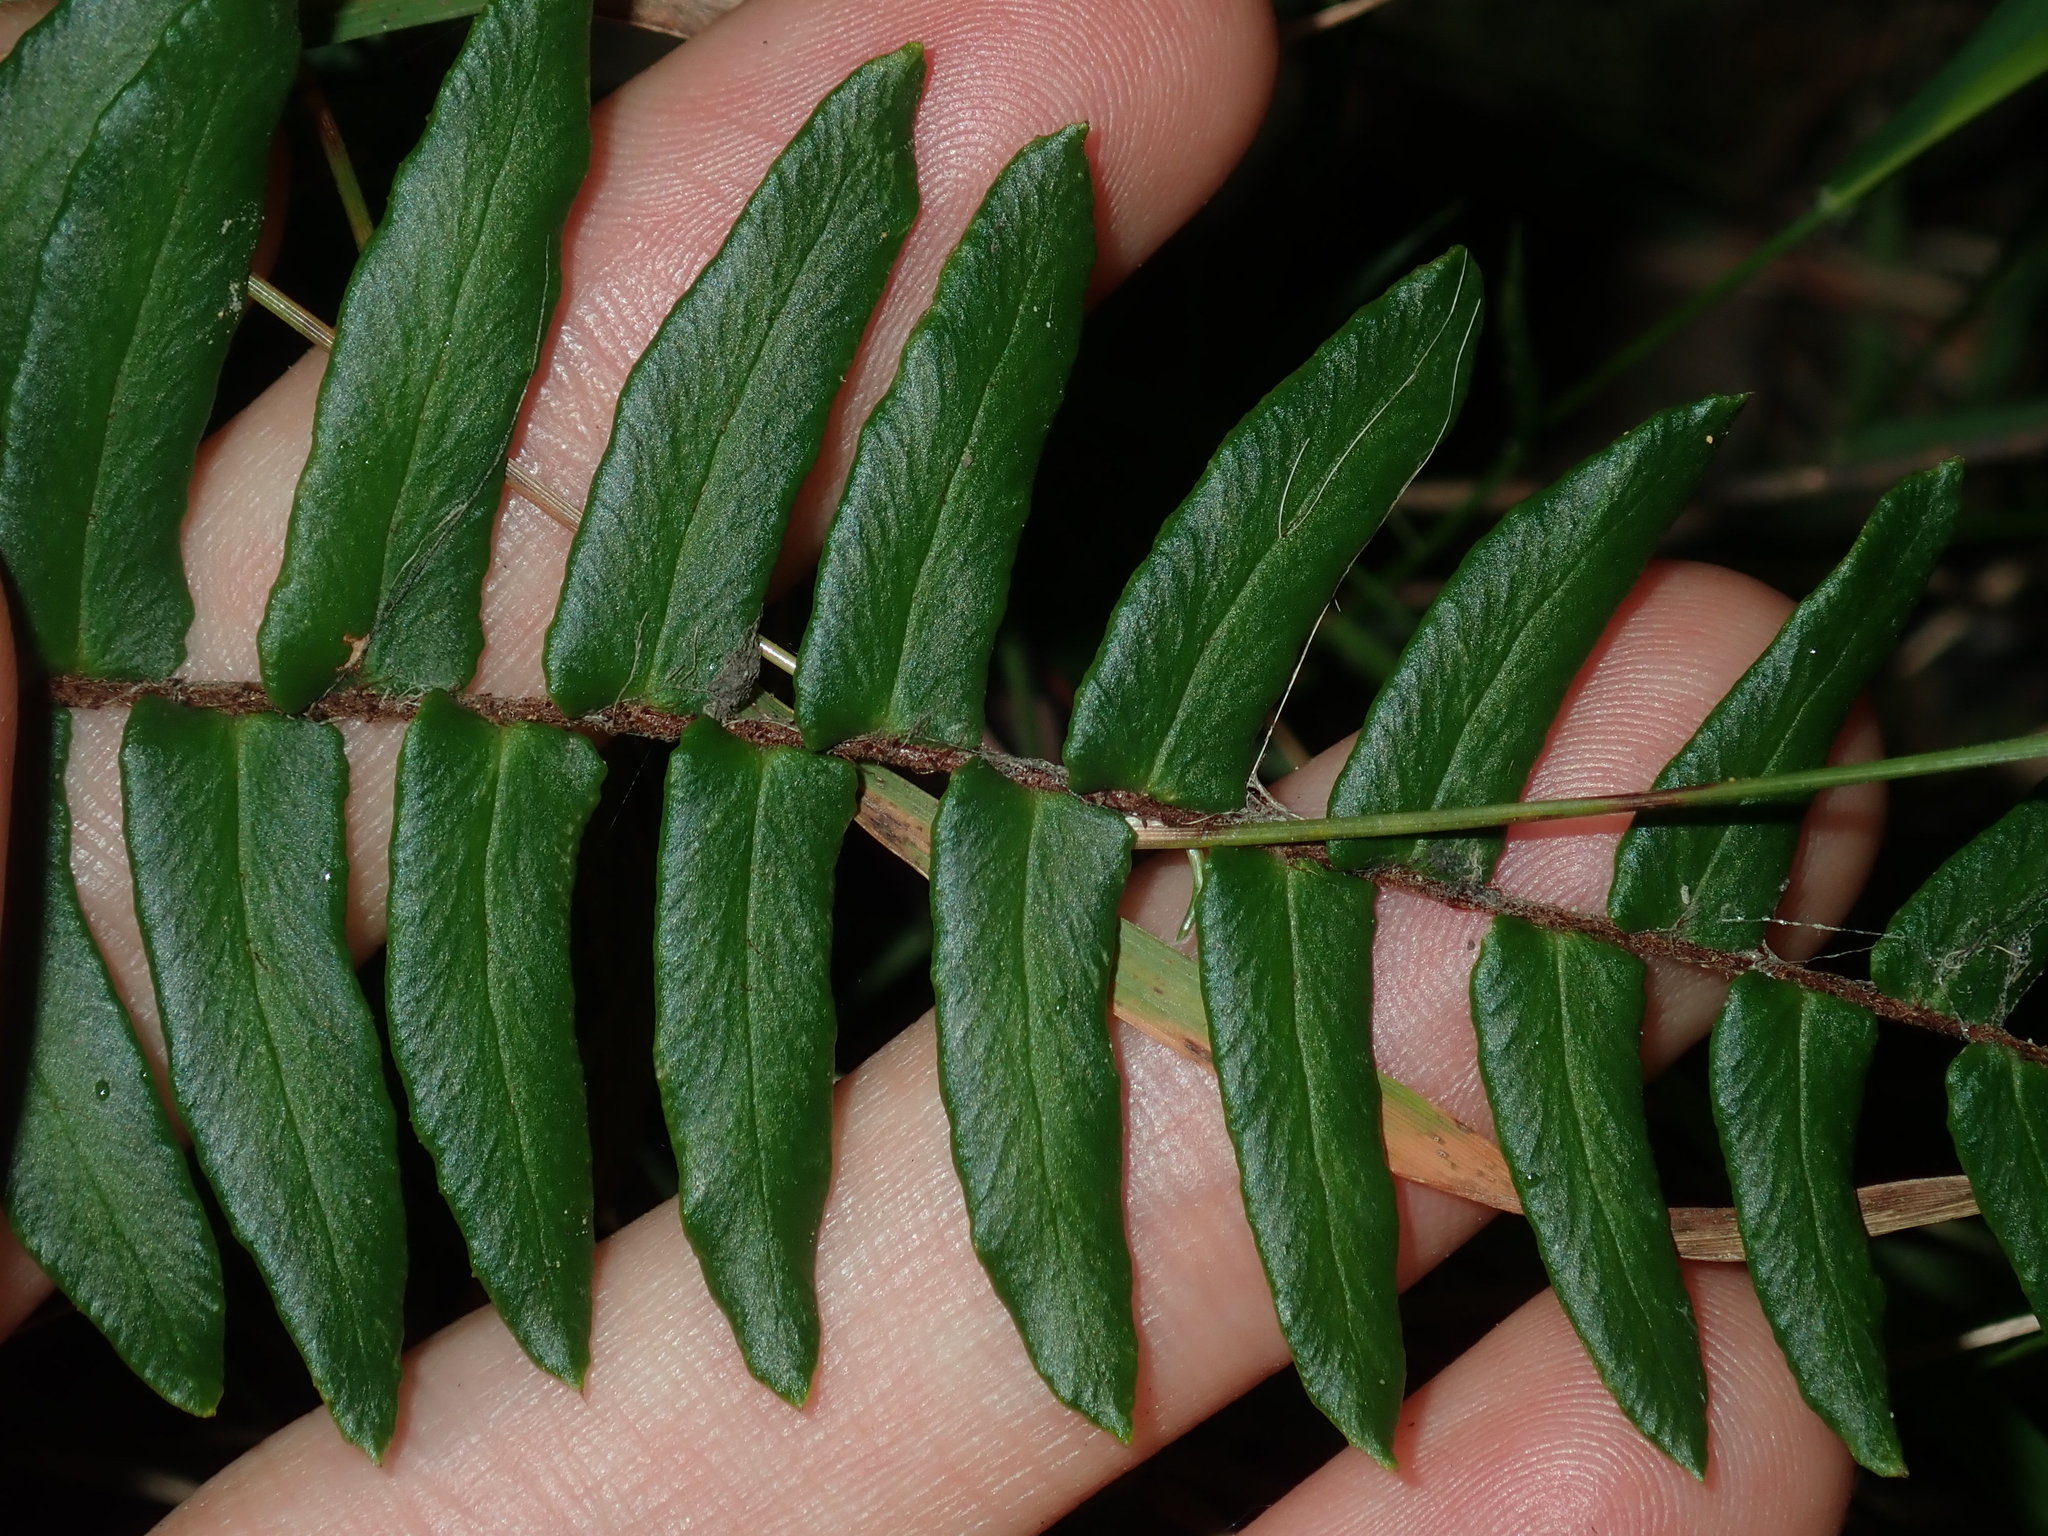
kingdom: Plantae
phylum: Tracheophyta
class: Polypodiopsida
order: Polypodiales
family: Pteridaceae
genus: Pellaea
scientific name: Pellaea falcata
